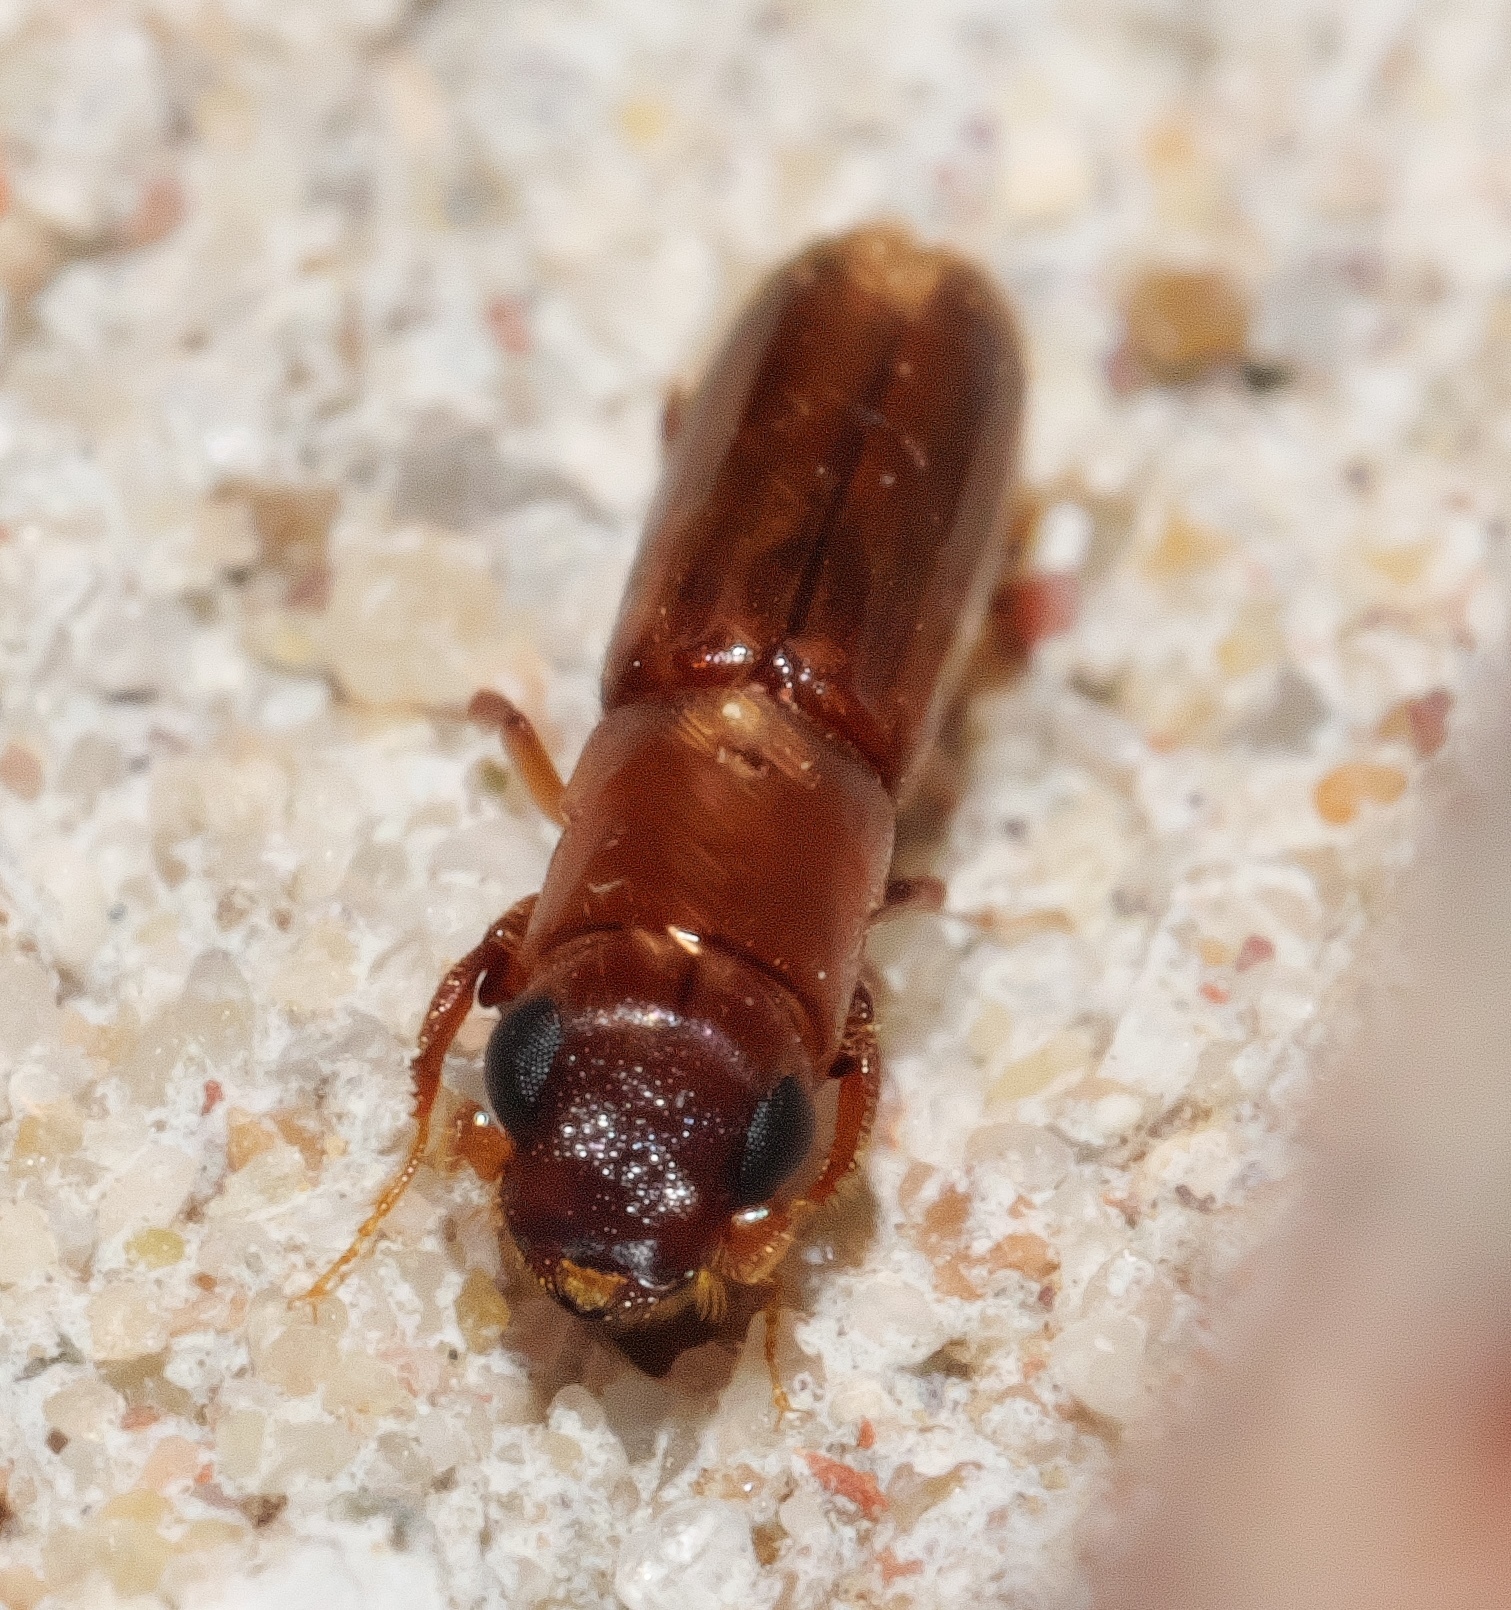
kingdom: Animalia
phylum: Arthropoda
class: Insecta
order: Coleoptera
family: Curculionidae
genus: Euplatypus
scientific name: Euplatypus compositus
